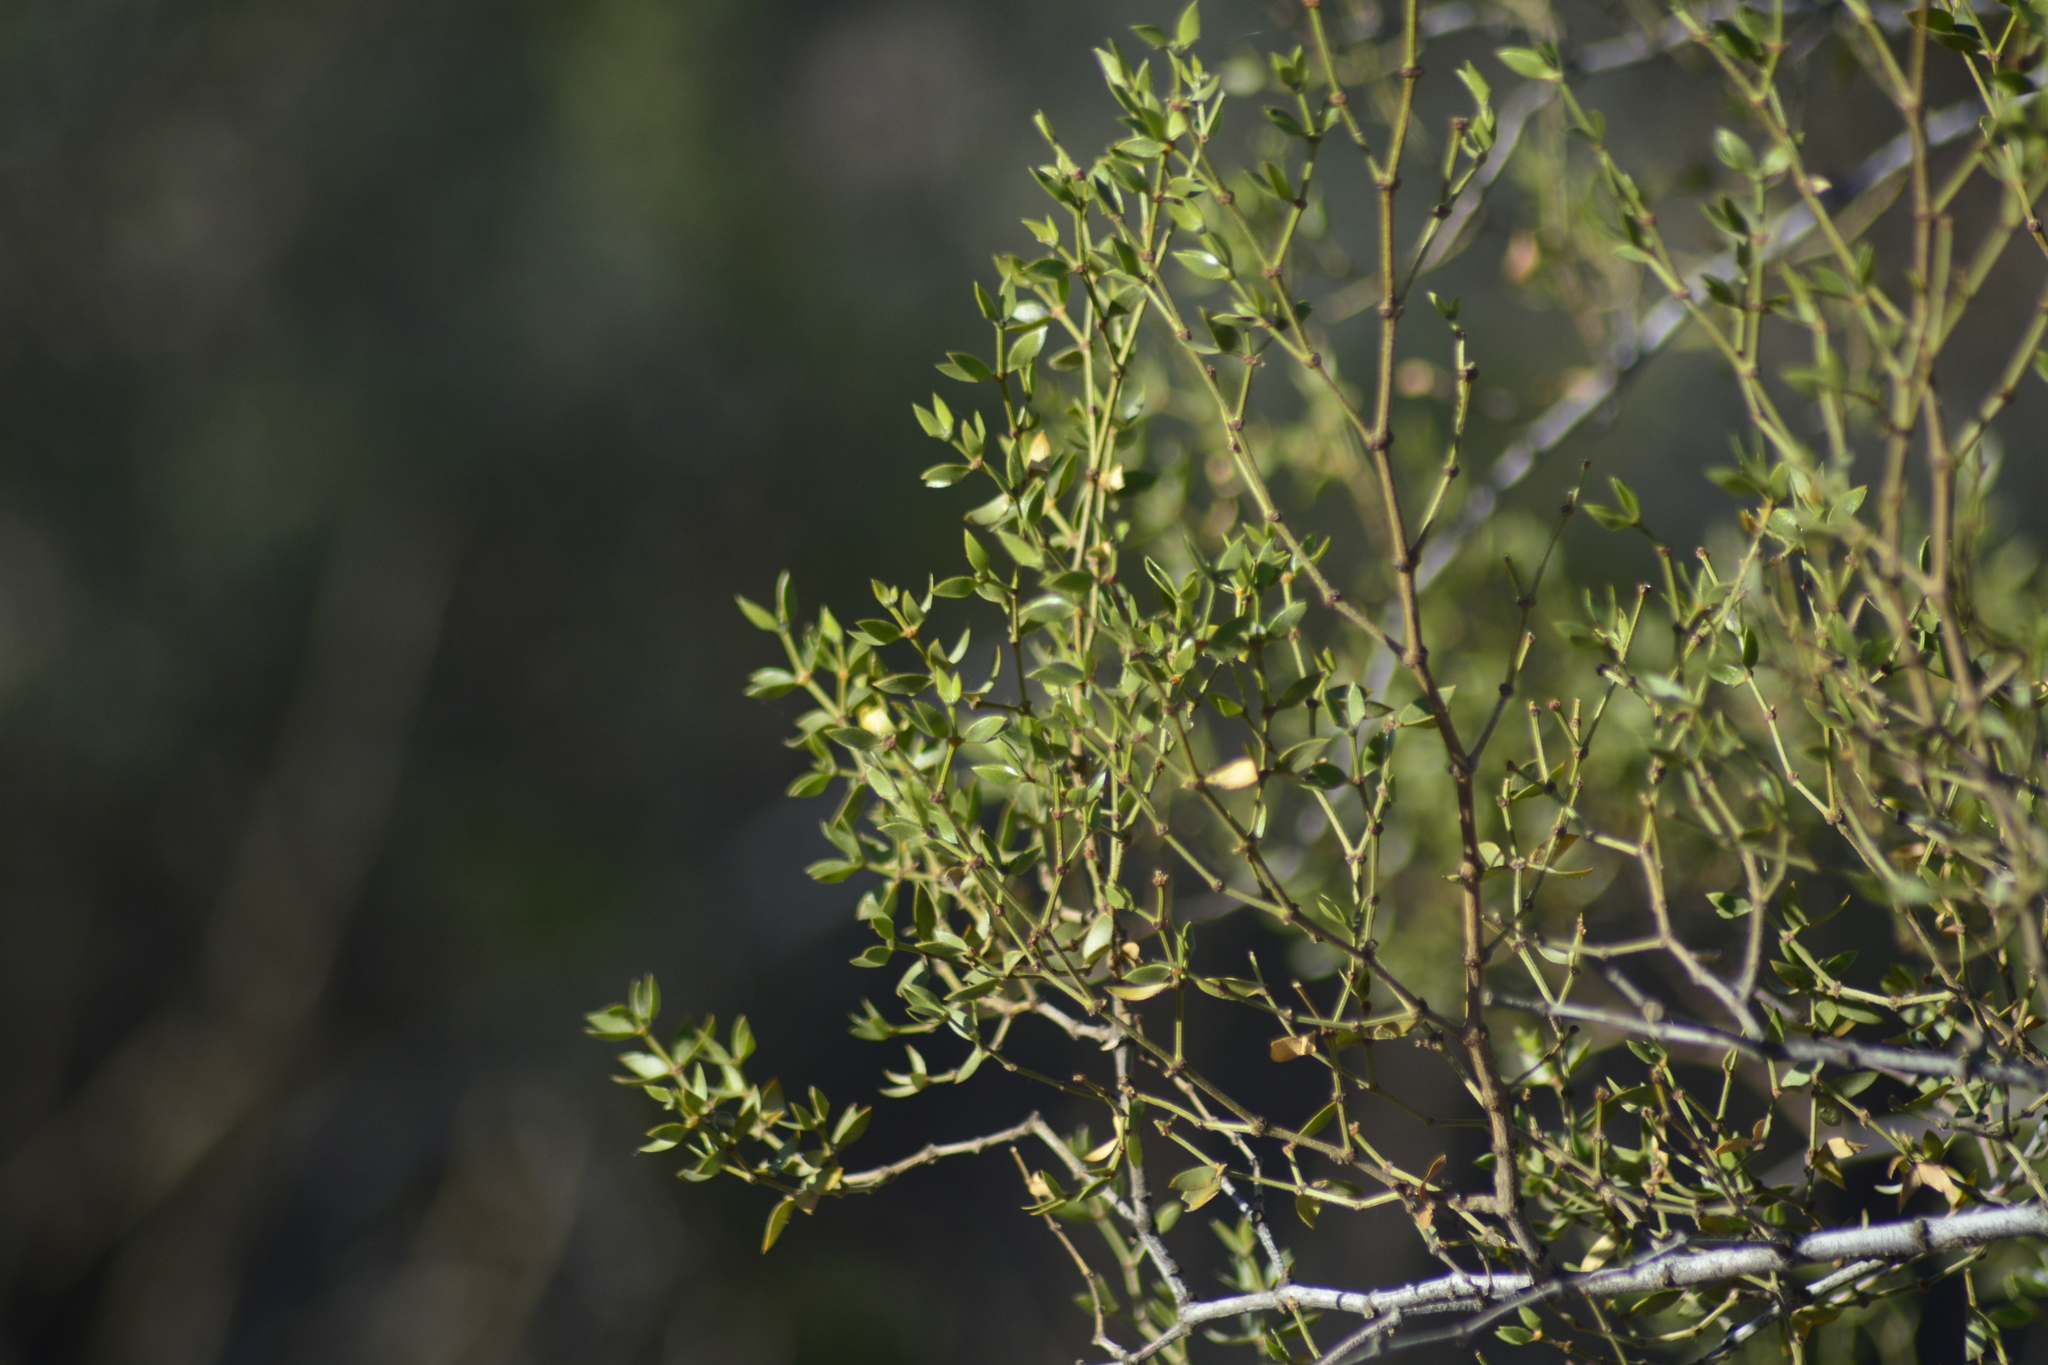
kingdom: Plantae
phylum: Tracheophyta
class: Magnoliopsida
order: Zygophyllales
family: Zygophyllaceae
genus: Larrea
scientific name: Larrea divaricata
